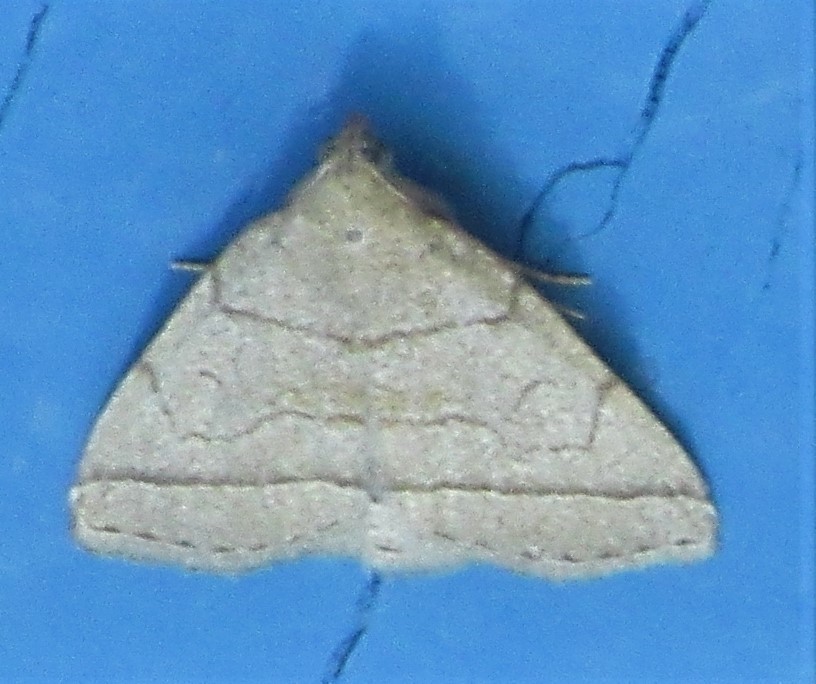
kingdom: Animalia
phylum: Arthropoda
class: Insecta
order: Lepidoptera
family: Erebidae
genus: Zanclognatha
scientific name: Zanclognatha cruralis
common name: Early fan-foot
